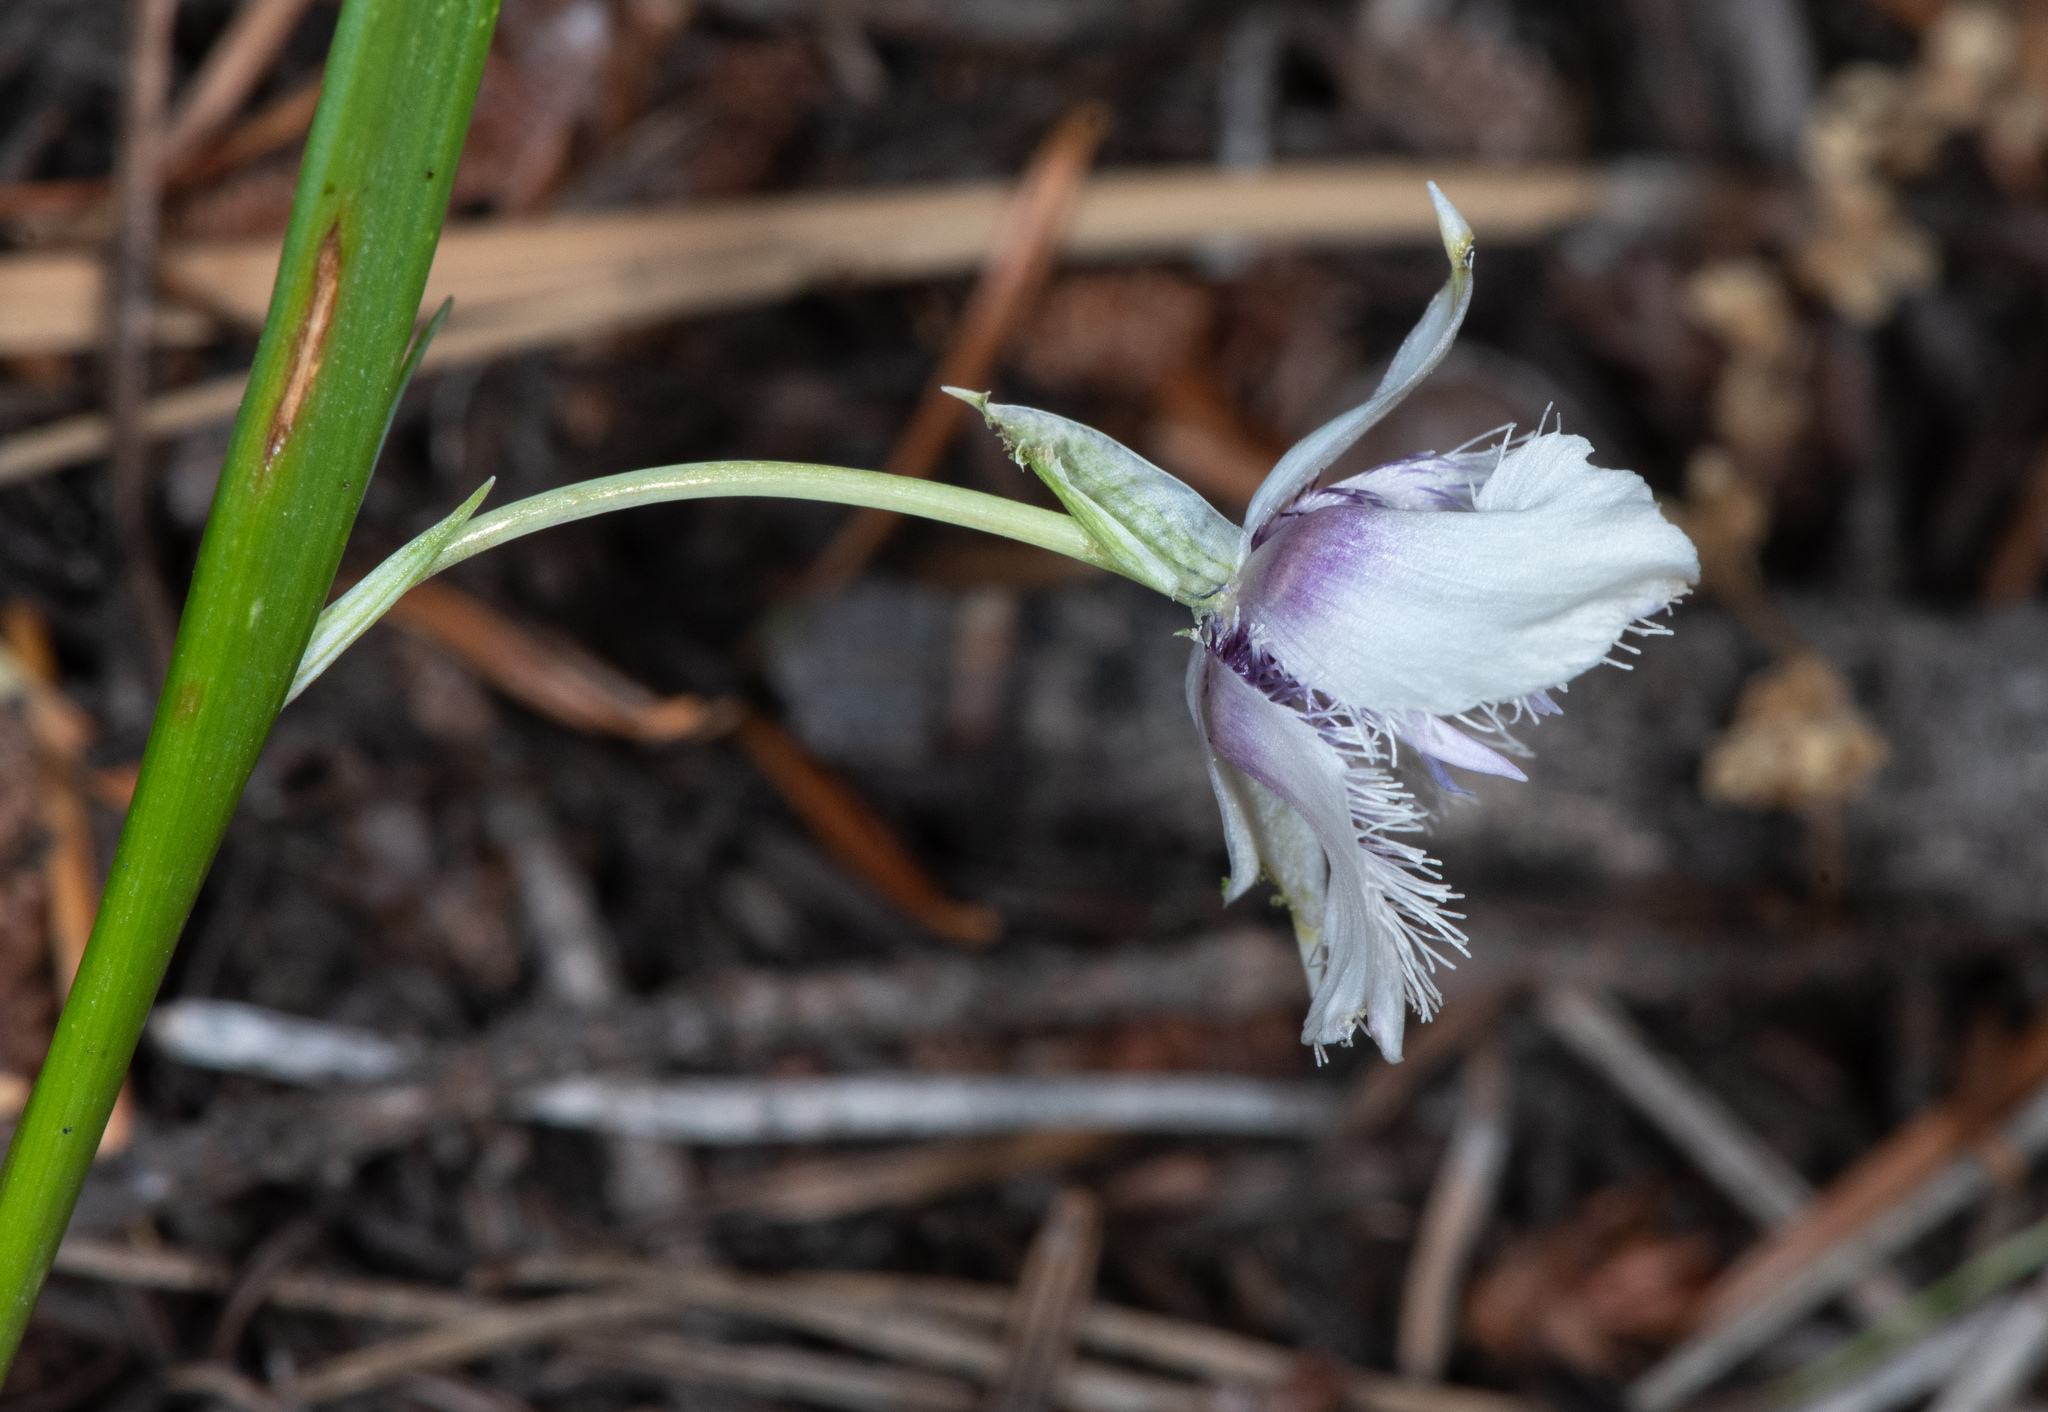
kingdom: Plantae
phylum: Tracheophyta
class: Liliopsida
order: Liliales
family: Liliaceae
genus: Calochortus
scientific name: Calochortus coeruleus
